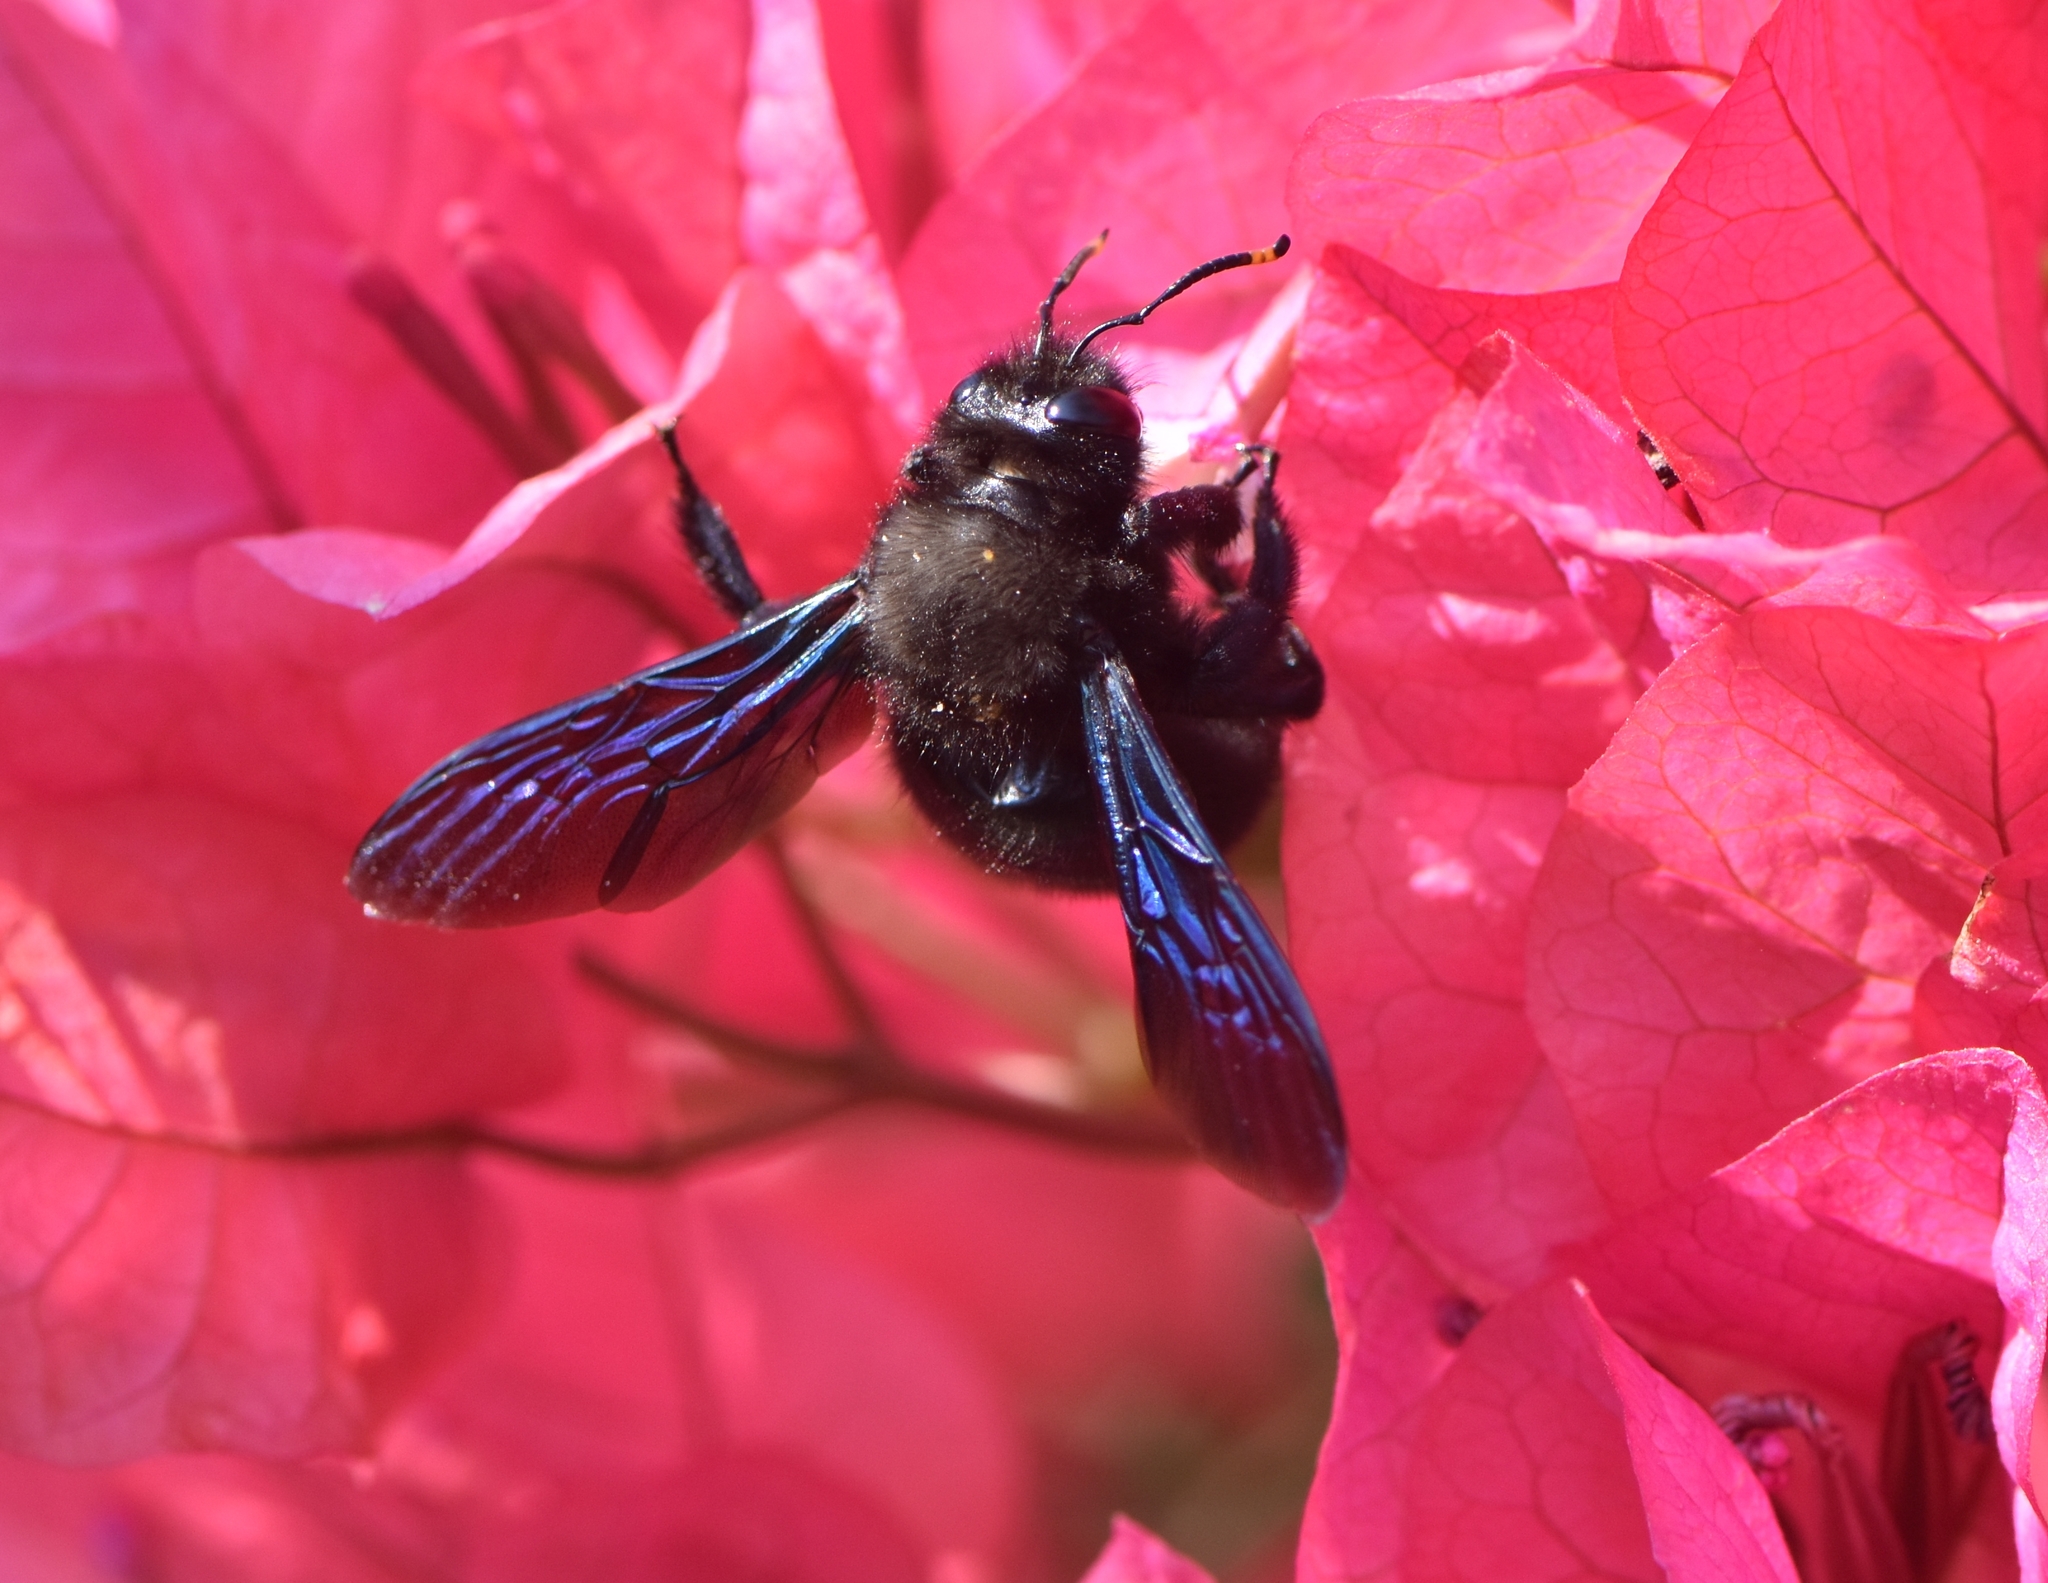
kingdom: Animalia
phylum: Arthropoda
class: Insecta
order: Hymenoptera
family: Apidae
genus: Xylocopa
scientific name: Xylocopa violacea
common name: Violet carpenter bee
